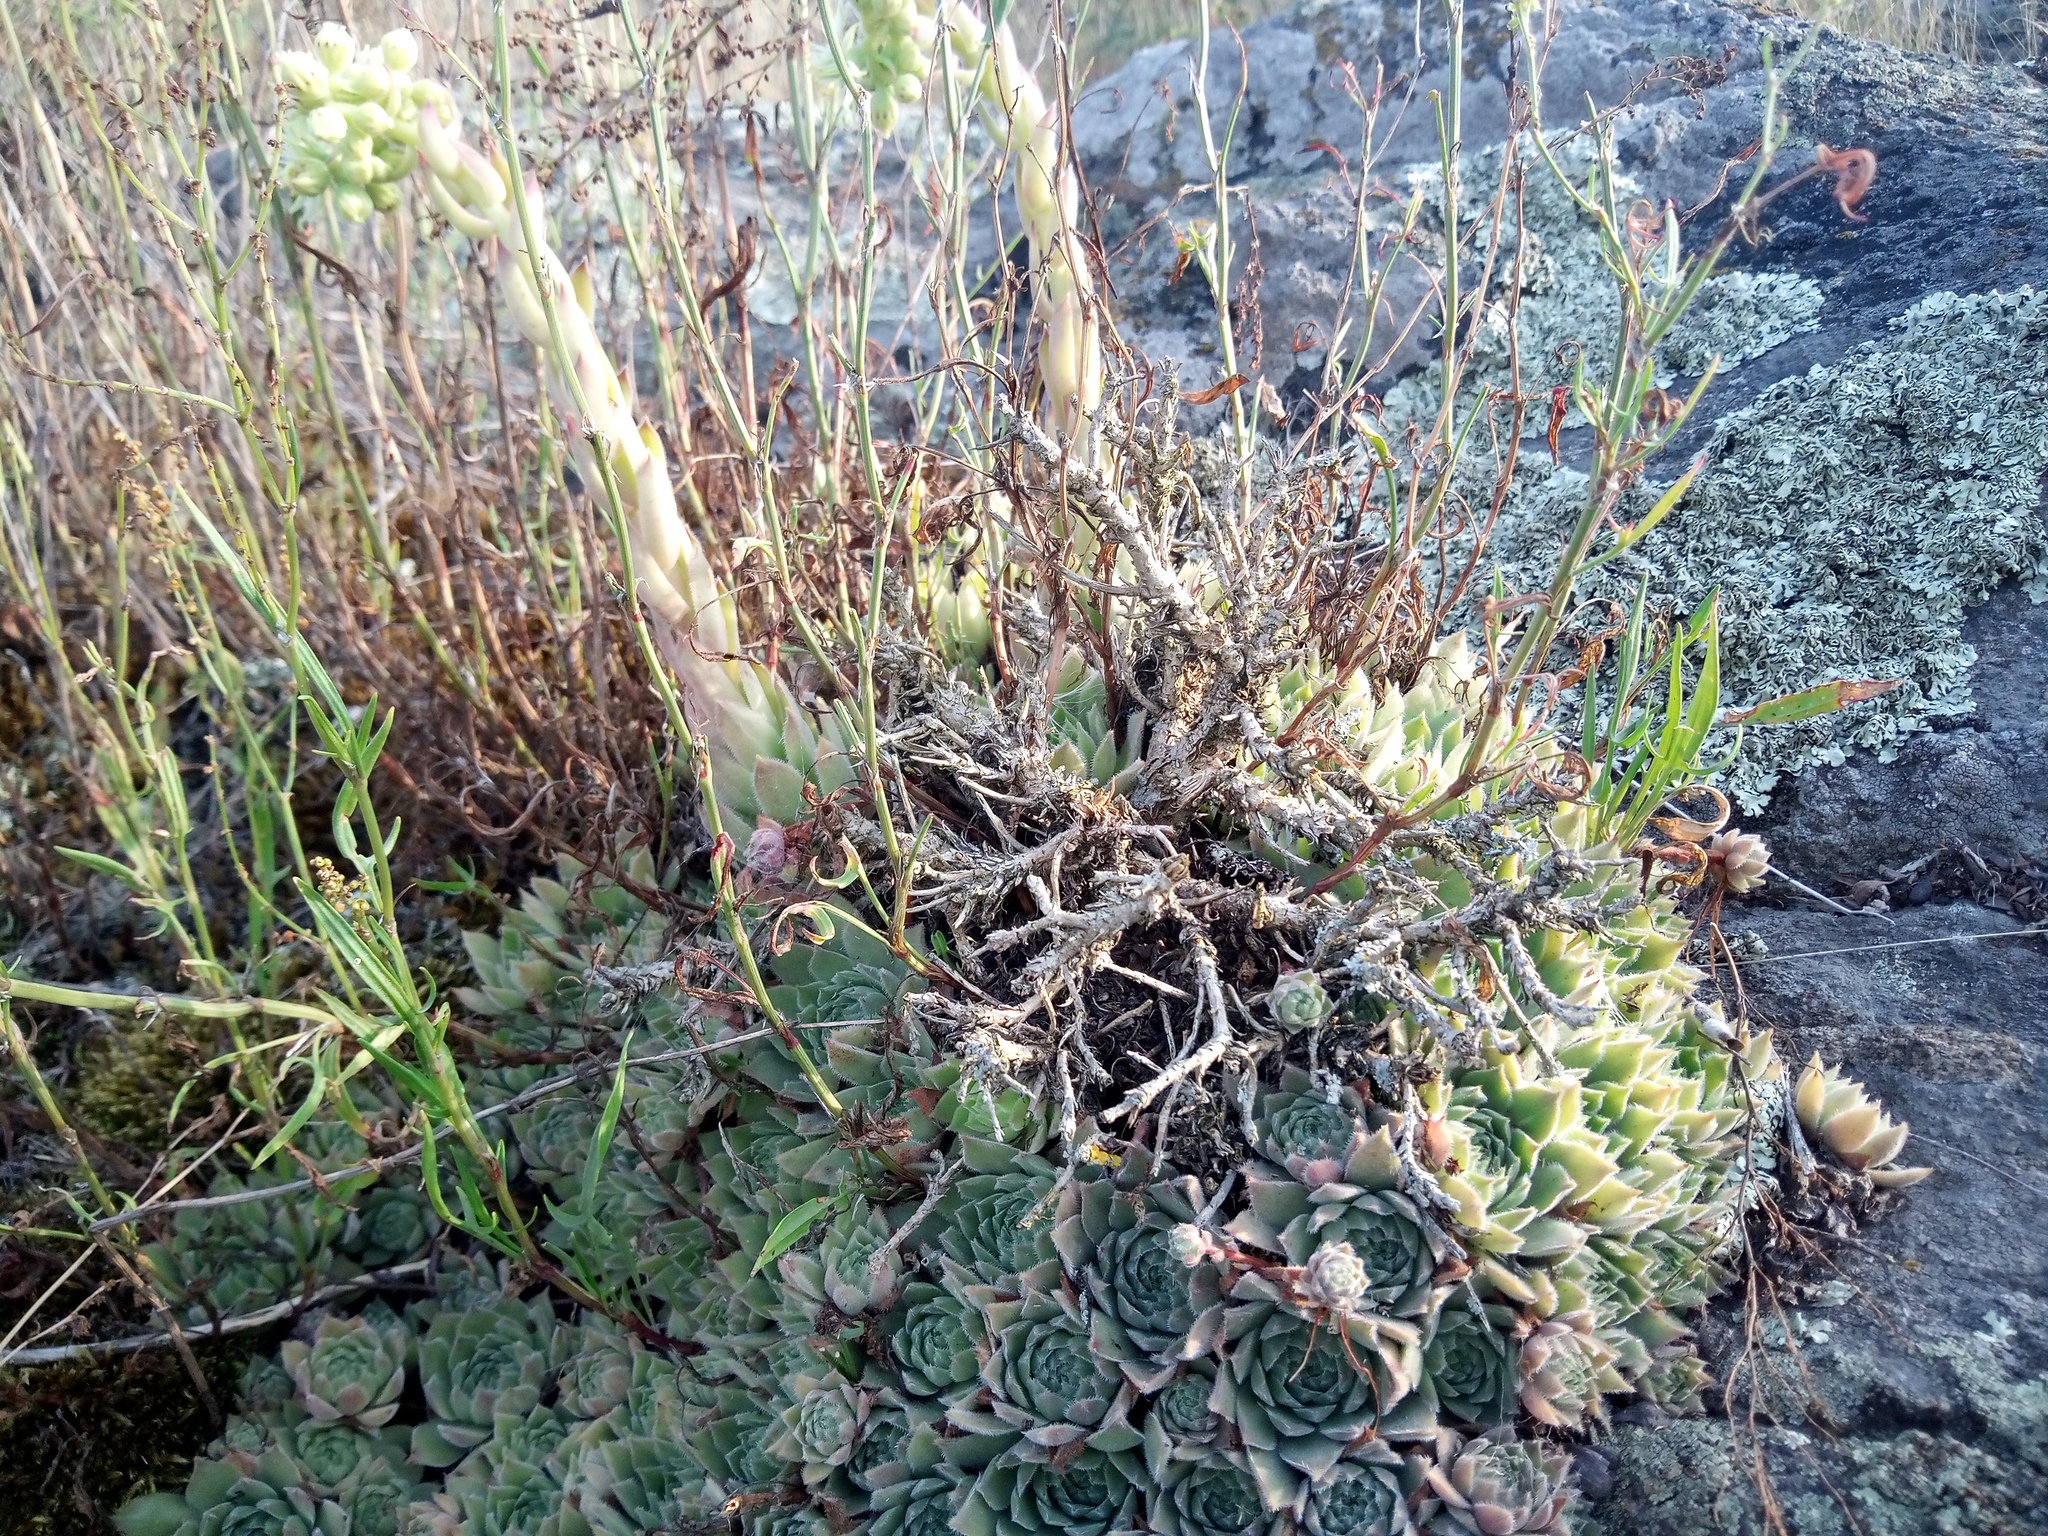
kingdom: Plantae
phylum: Tracheophyta
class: Magnoliopsida
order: Saxifragales
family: Crassulaceae
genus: Sempervivum
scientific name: Sempervivum ruthenicum
